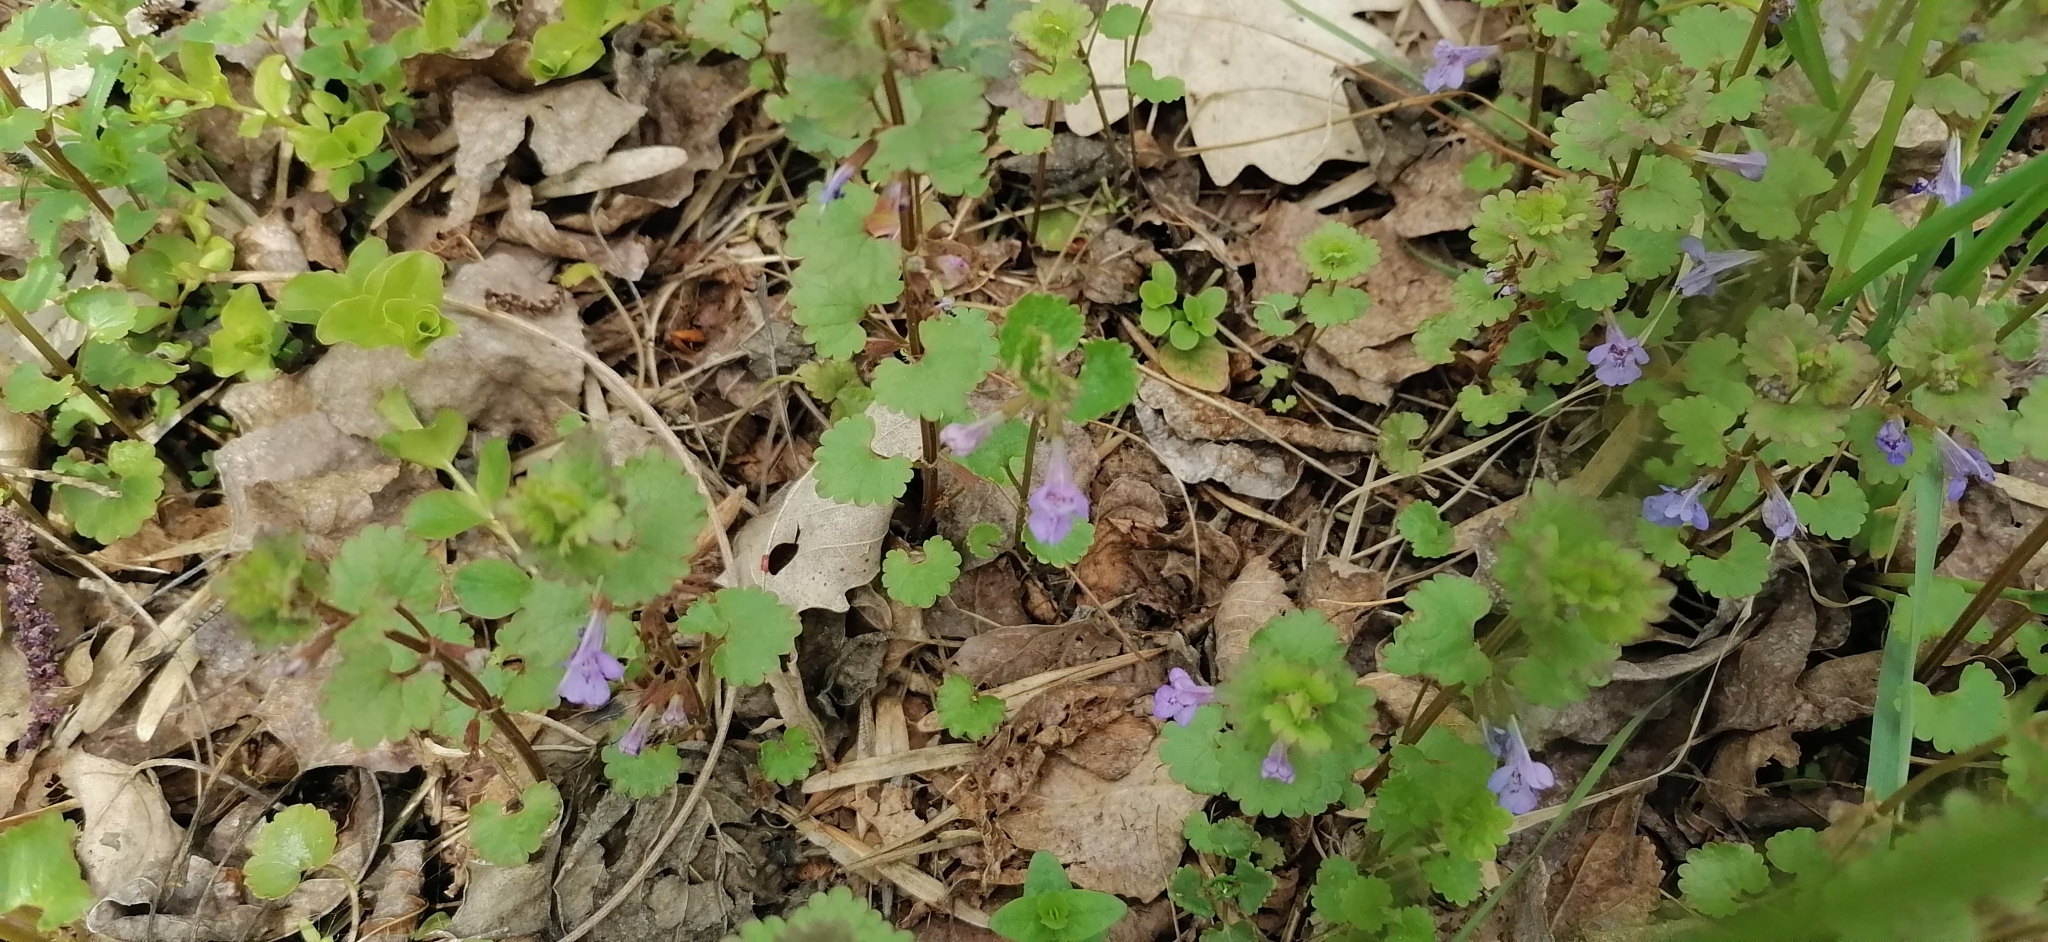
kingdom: Plantae
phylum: Tracheophyta
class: Magnoliopsida
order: Lamiales
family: Lamiaceae
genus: Glechoma
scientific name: Glechoma hederacea
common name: Ground ivy
